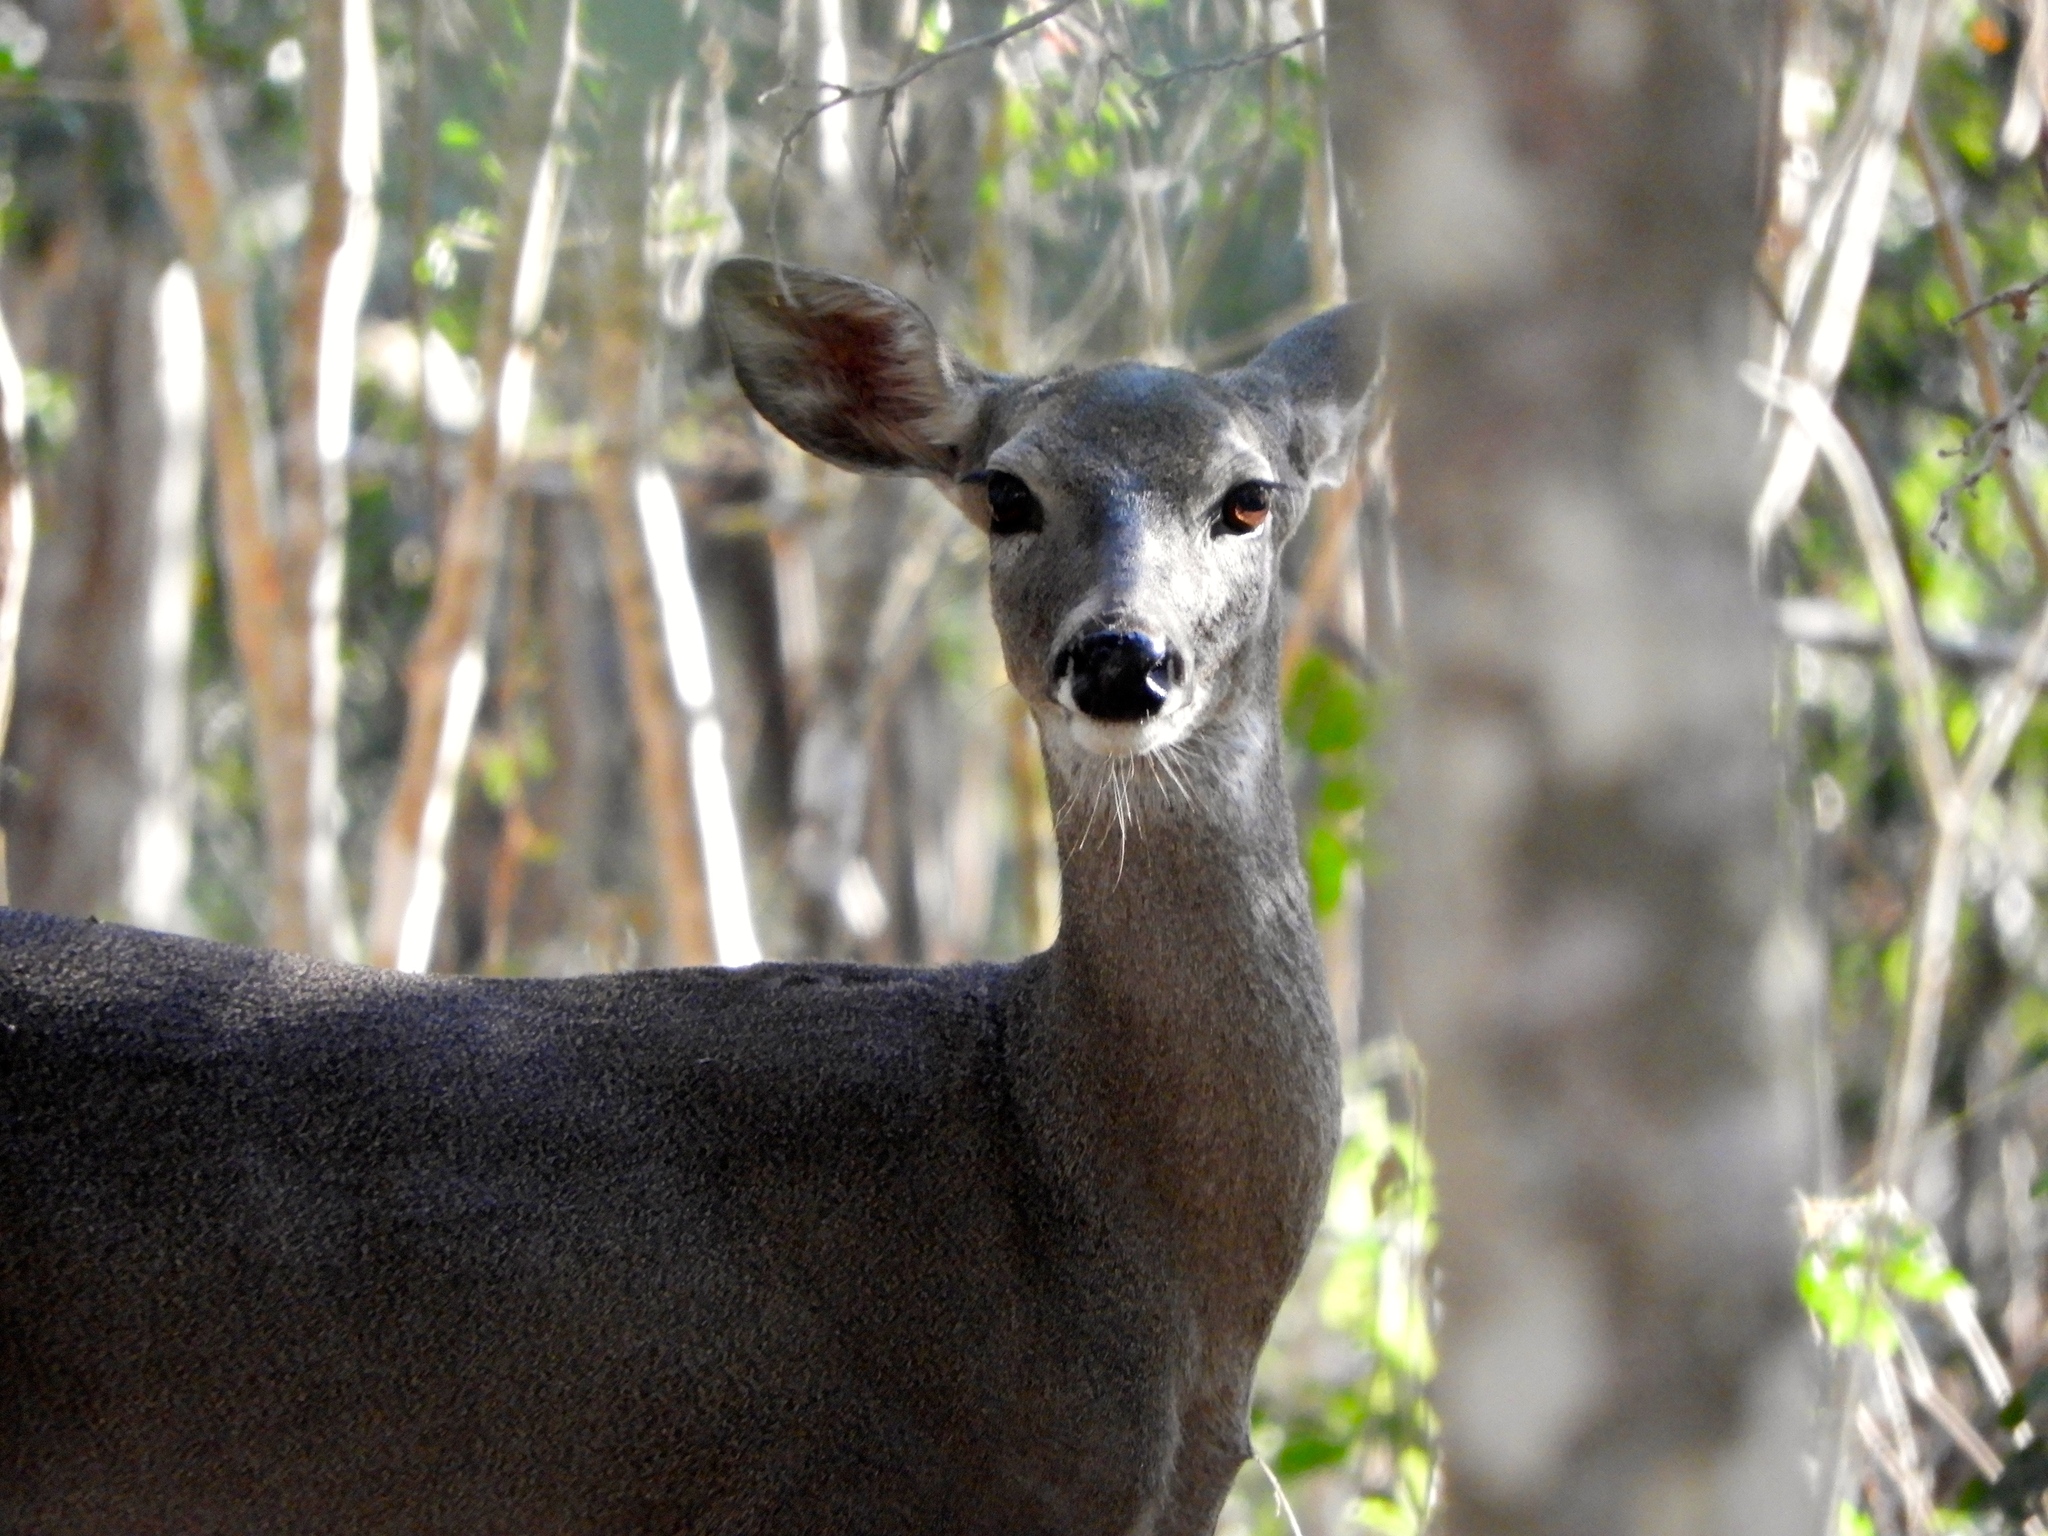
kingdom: Animalia
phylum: Chordata
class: Mammalia
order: Artiodactyla
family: Cervidae
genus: Odocoileus
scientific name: Odocoileus virginianus
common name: White-tailed deer
